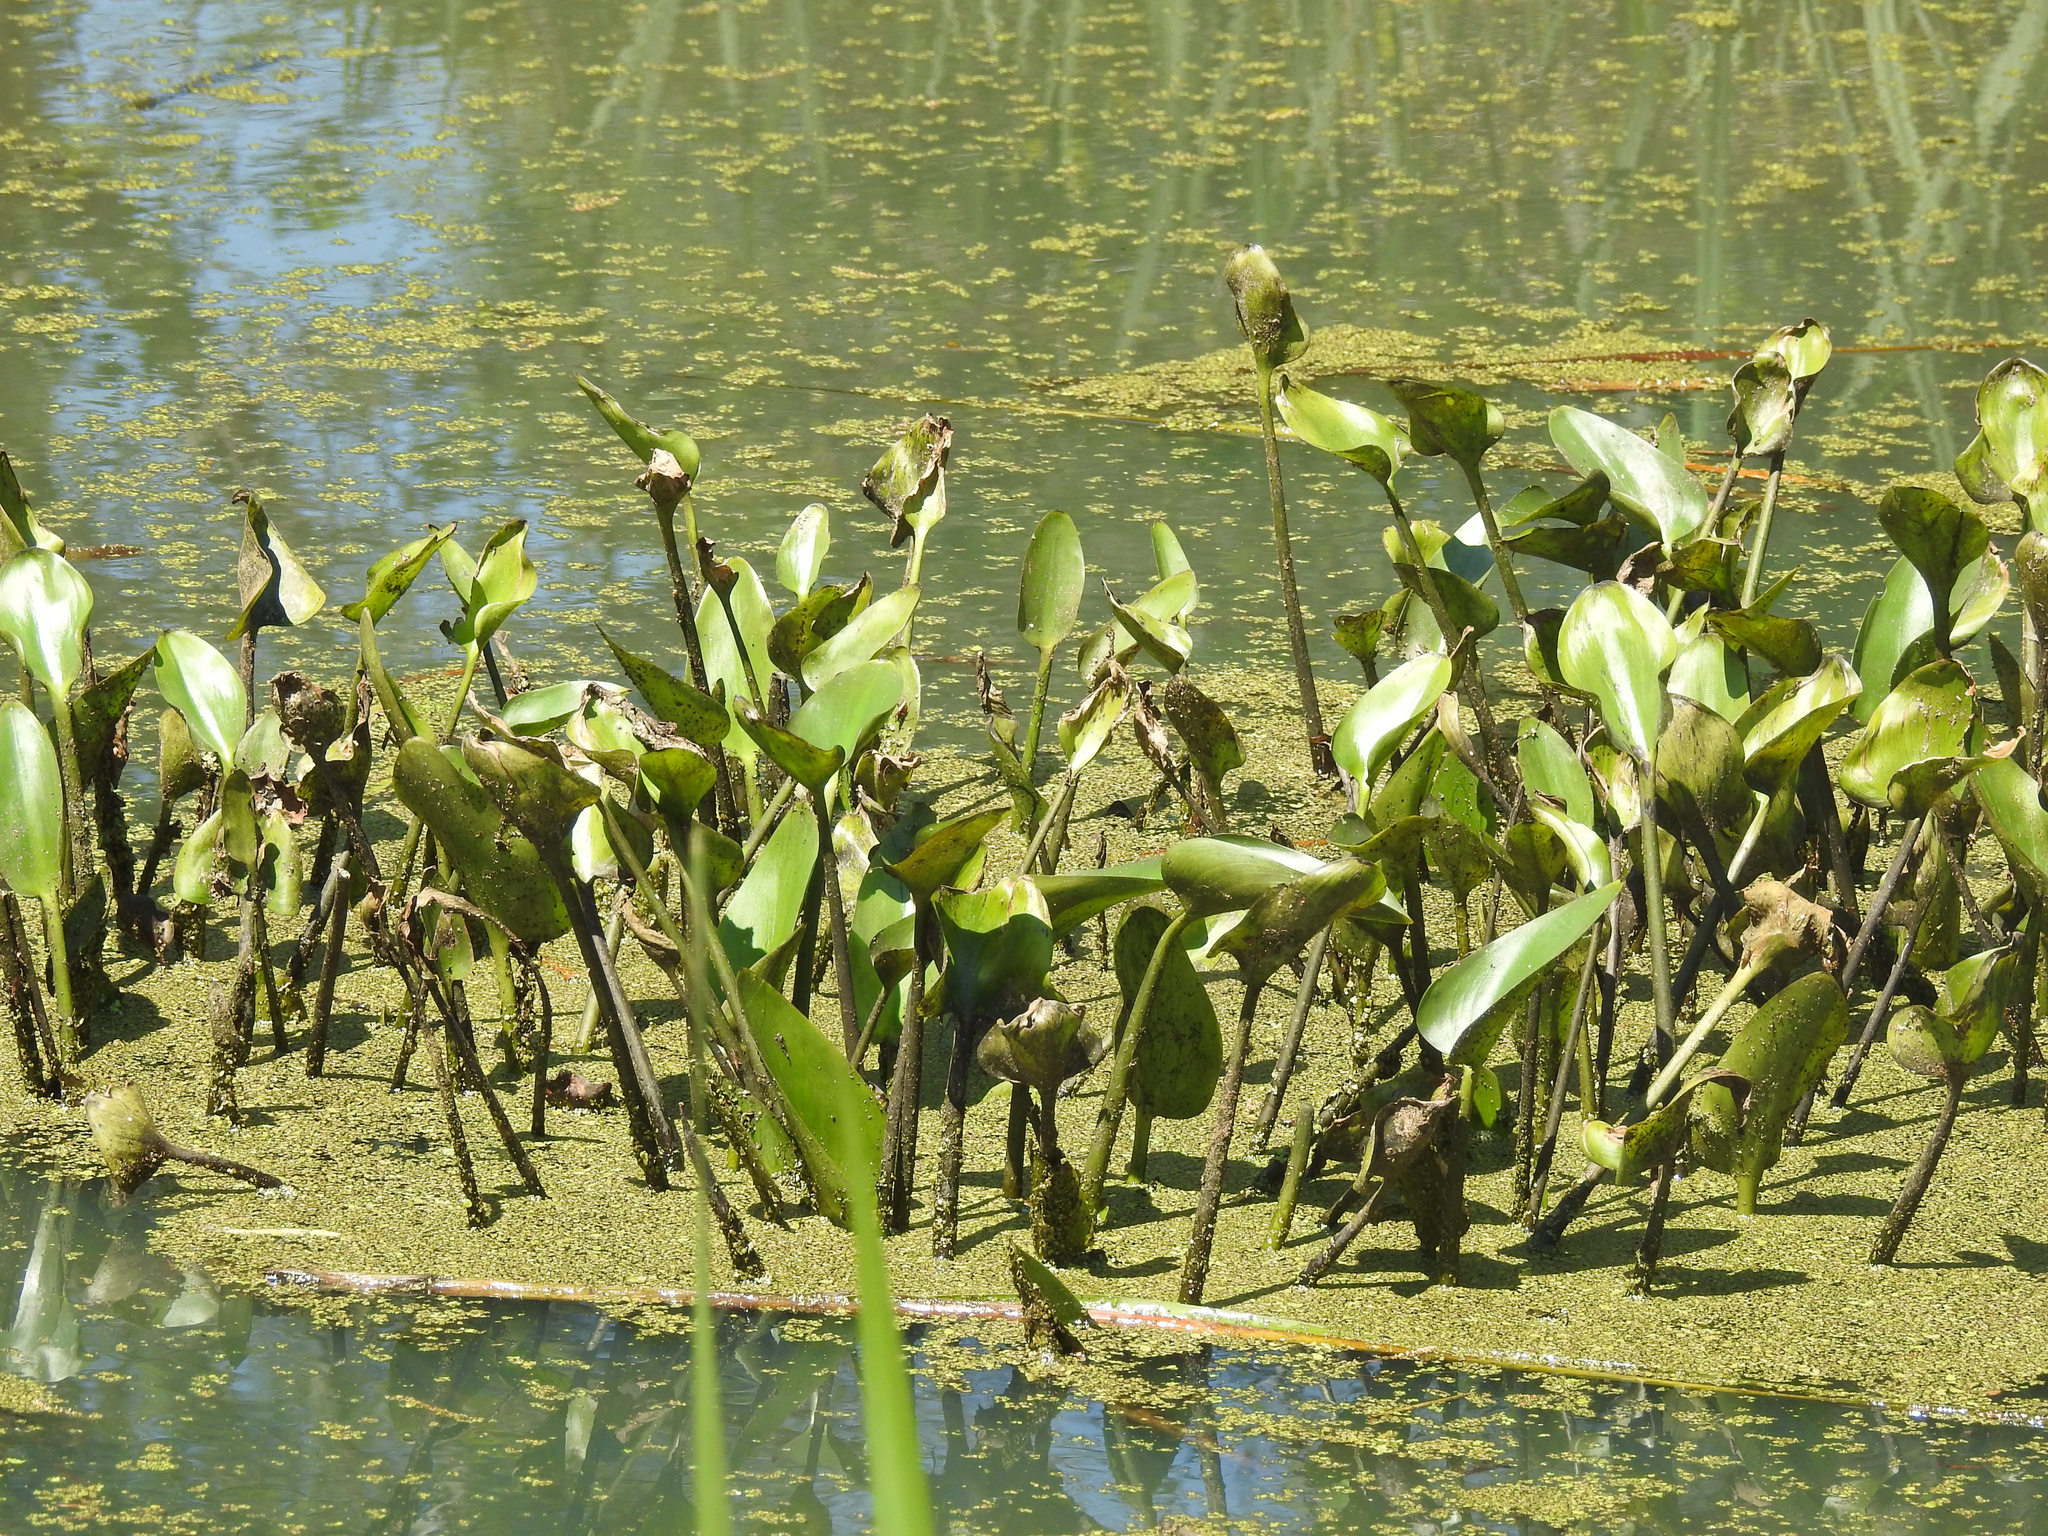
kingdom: Plantae
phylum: Tracheophyta
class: Liliopsida
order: Commelinales
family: Pontederiaceae
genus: Pontederia
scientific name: Pontederia cordata
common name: Pickerelweed
